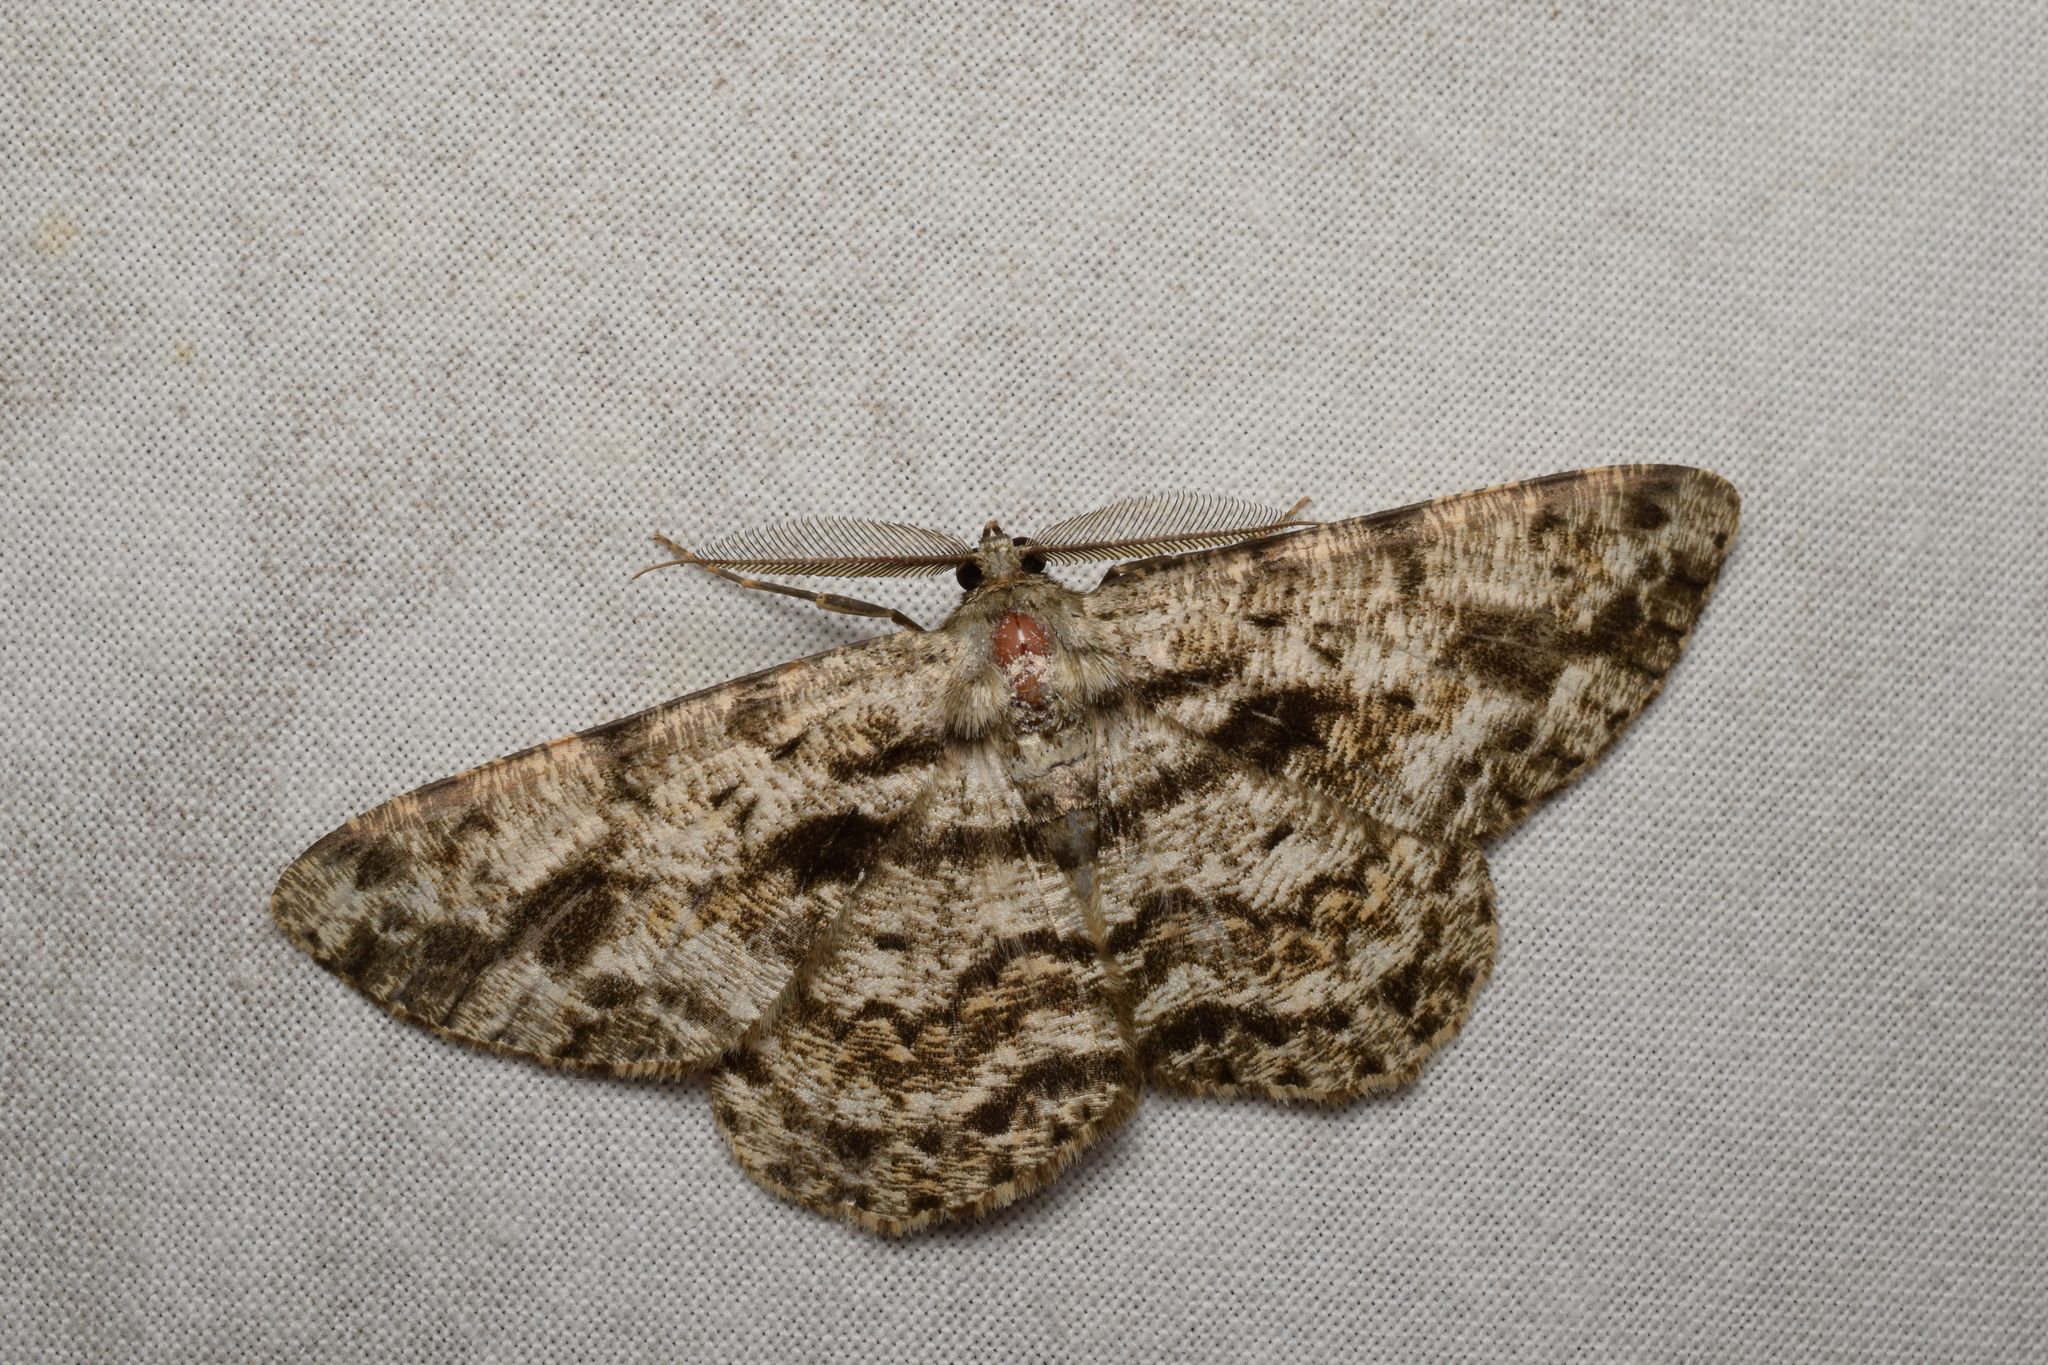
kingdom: Animalia
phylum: Arthropoda
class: Insecta
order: Lepidoptera
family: Geometridae
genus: Hypomecis
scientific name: Hypomecis roboraria
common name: Great oak beauty
